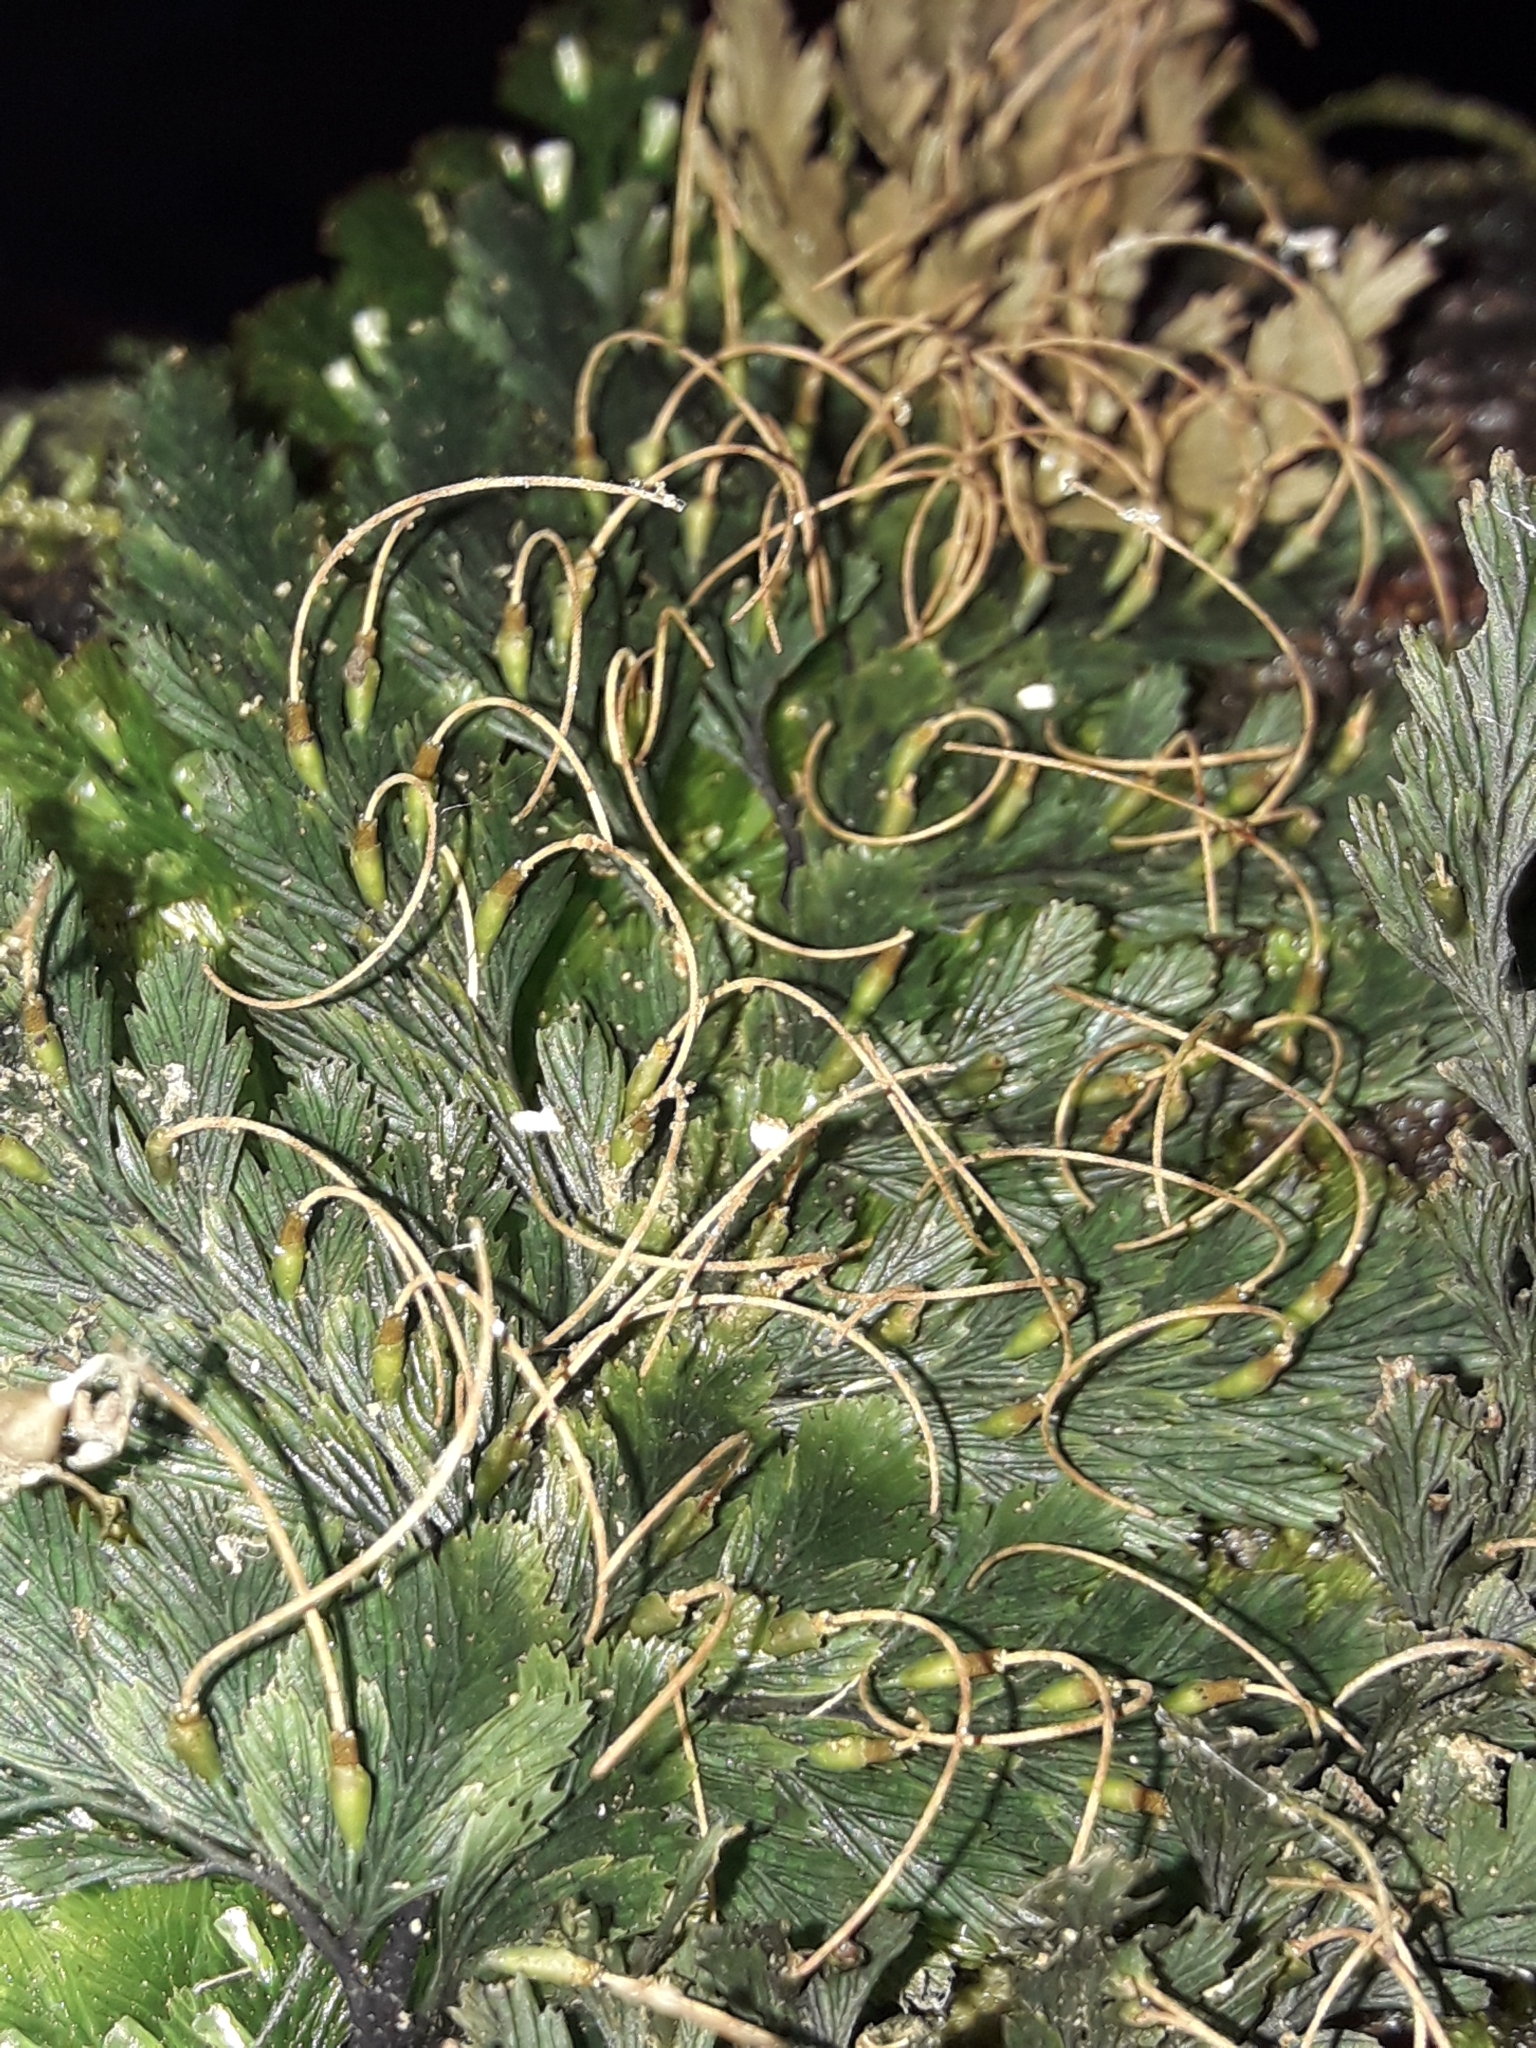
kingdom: Plantae
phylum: Tracheophyta
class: Polypodiopsida
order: Hymenophyllales
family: Hymenophyllaceae
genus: Abrodictyum
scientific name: Abrodictyum elongatum
